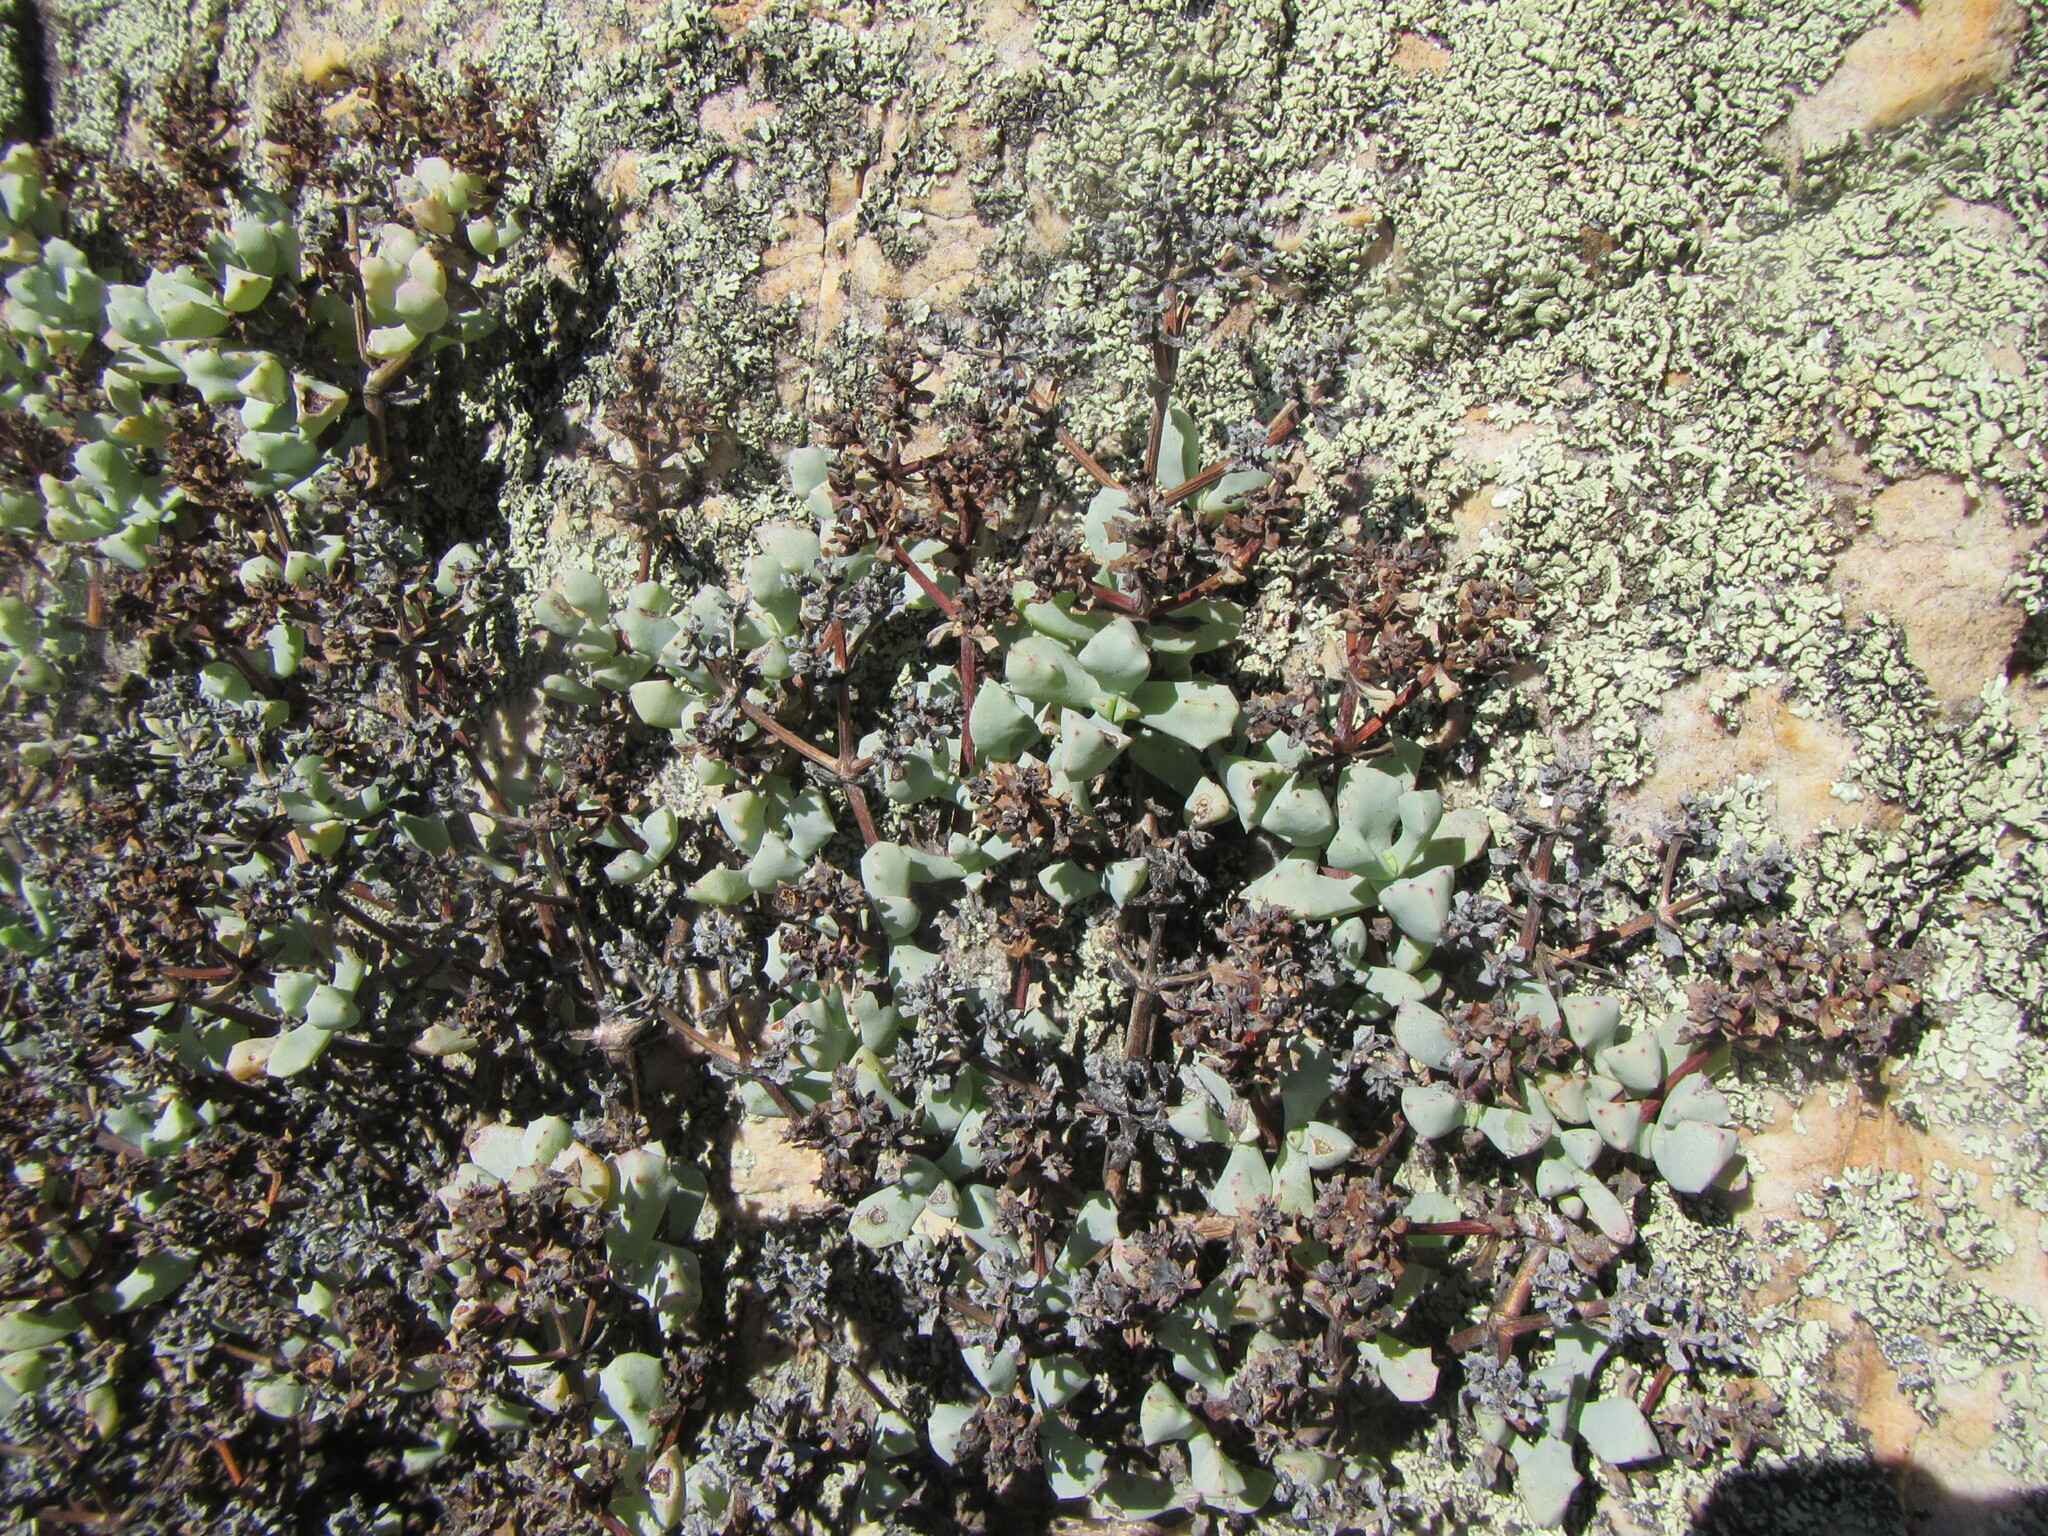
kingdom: Plantae
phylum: Tracheophyta
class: Magnoliopsida
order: Caryophyllales
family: Aizoaceae
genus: Oscularia
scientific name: Oscularia deltoides
